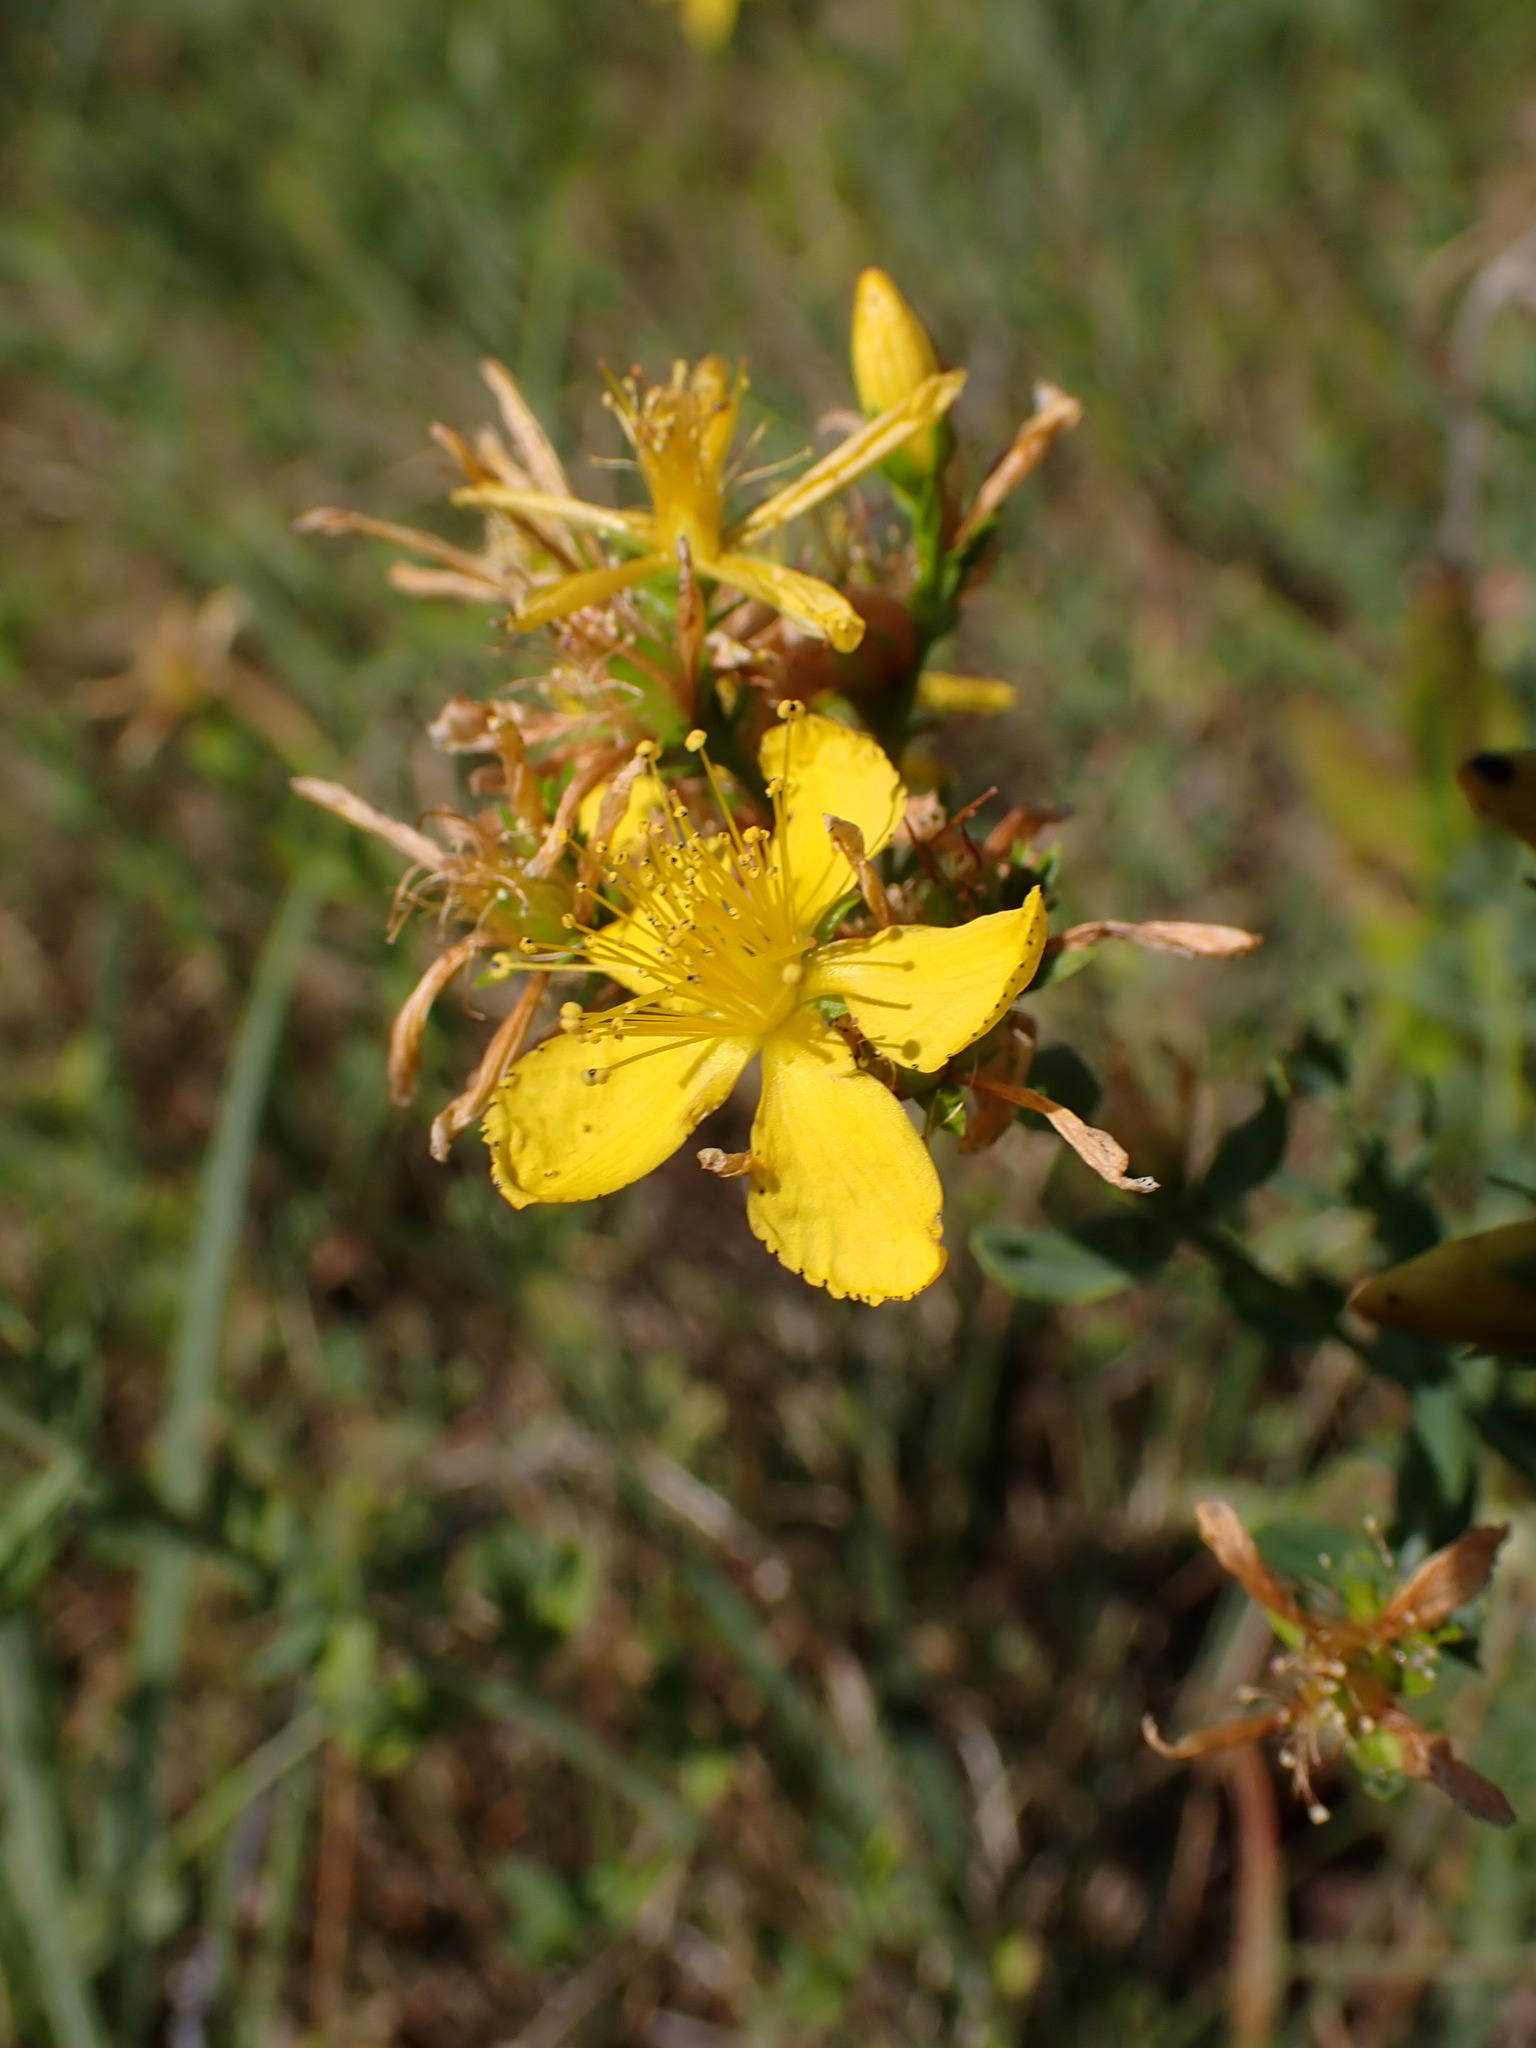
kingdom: Plantae
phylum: Tracheophyta
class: Magnoliopsida
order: Malpighiales
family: Hypericaceae
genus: Hypericum
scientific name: Hypericum perforatum
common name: Common st. johnswort
